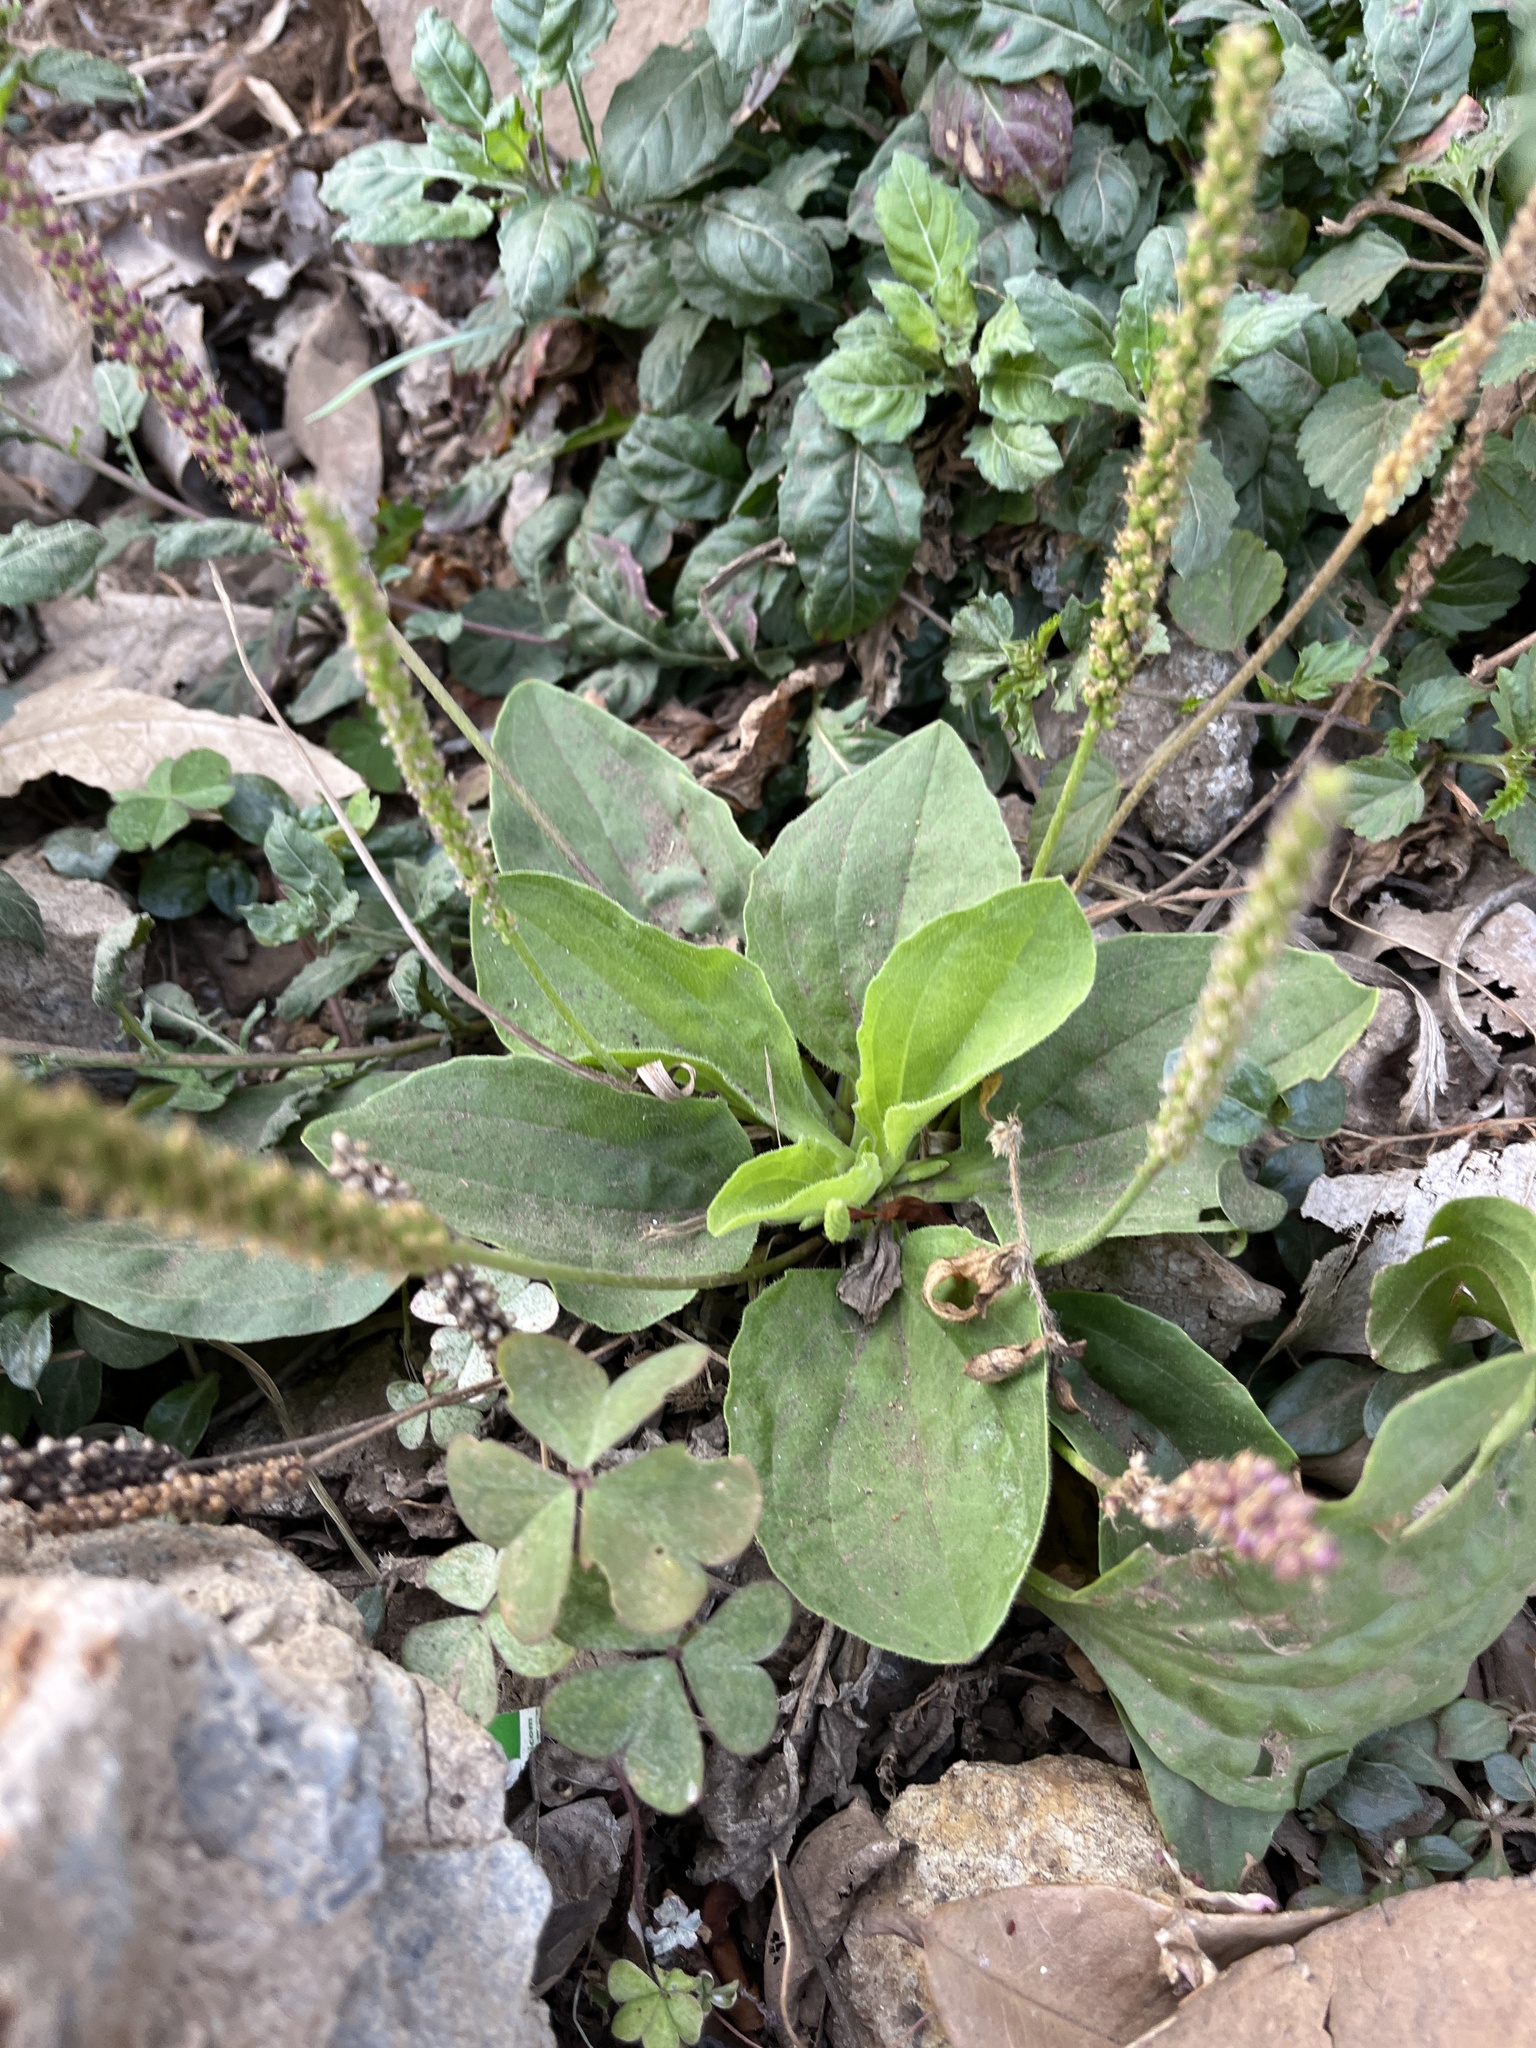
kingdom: Plantae
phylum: Tracheophyta
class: Magnoliopsida
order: Lamiales
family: Plantaginaceae
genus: Plantago
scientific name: Plantago major
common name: Common plantain
